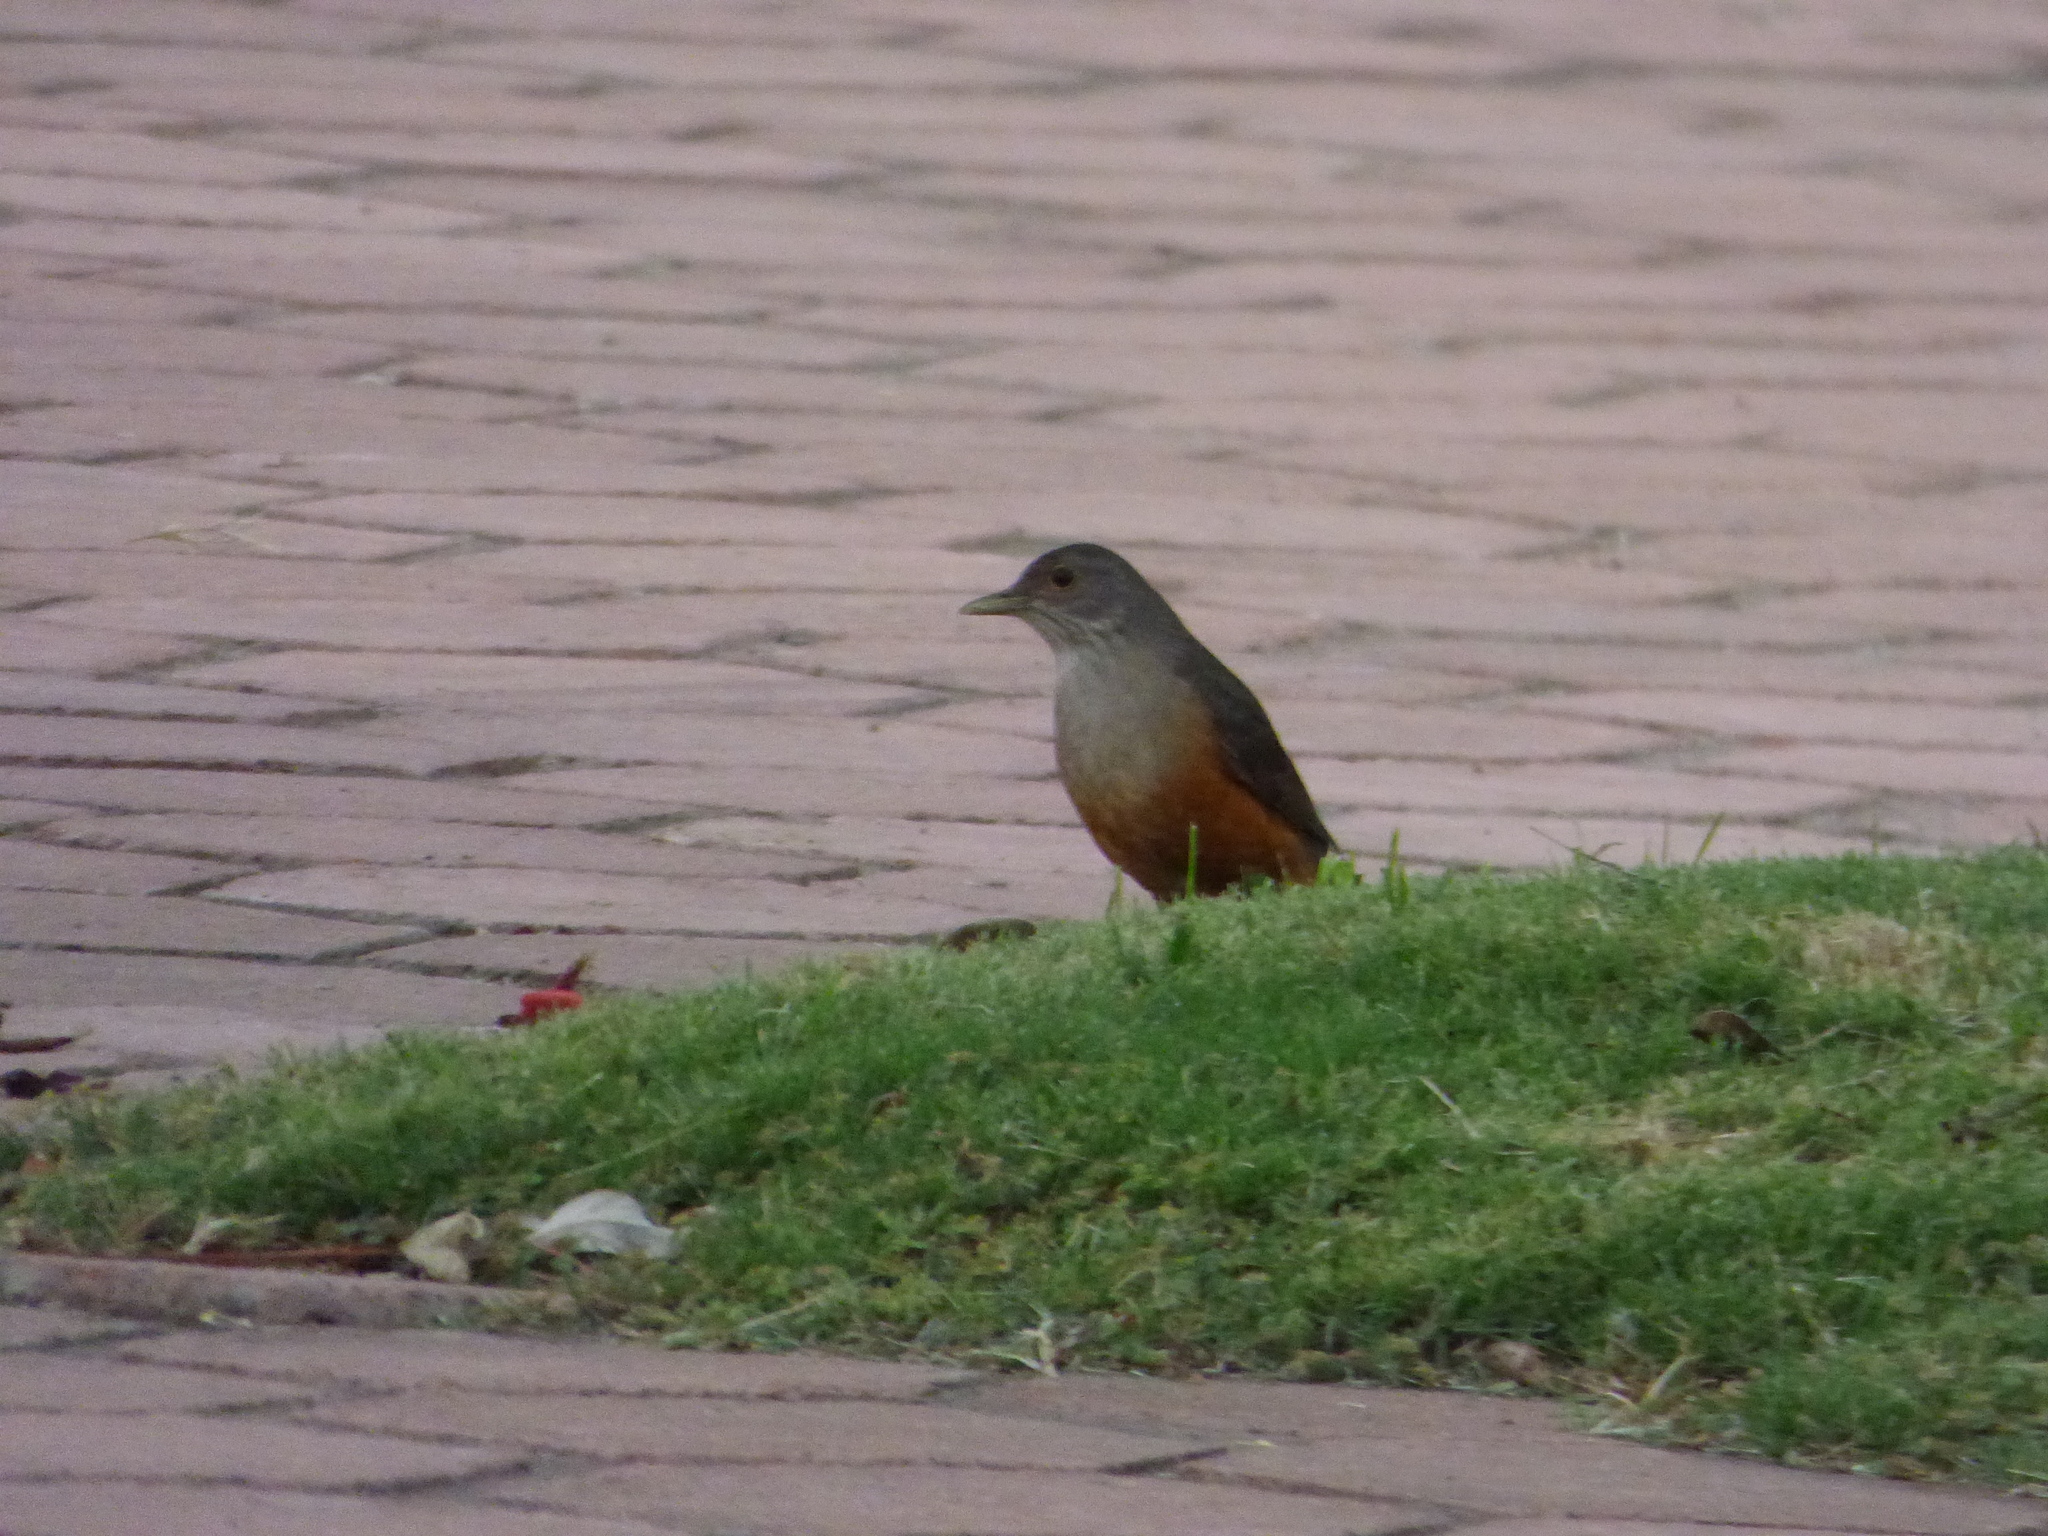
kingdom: Animalia
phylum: Chordata
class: Aves
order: Passeriformes
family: Turdidae
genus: Turdus
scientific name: Turdus rufiventris
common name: Rufous-bellied thrush
